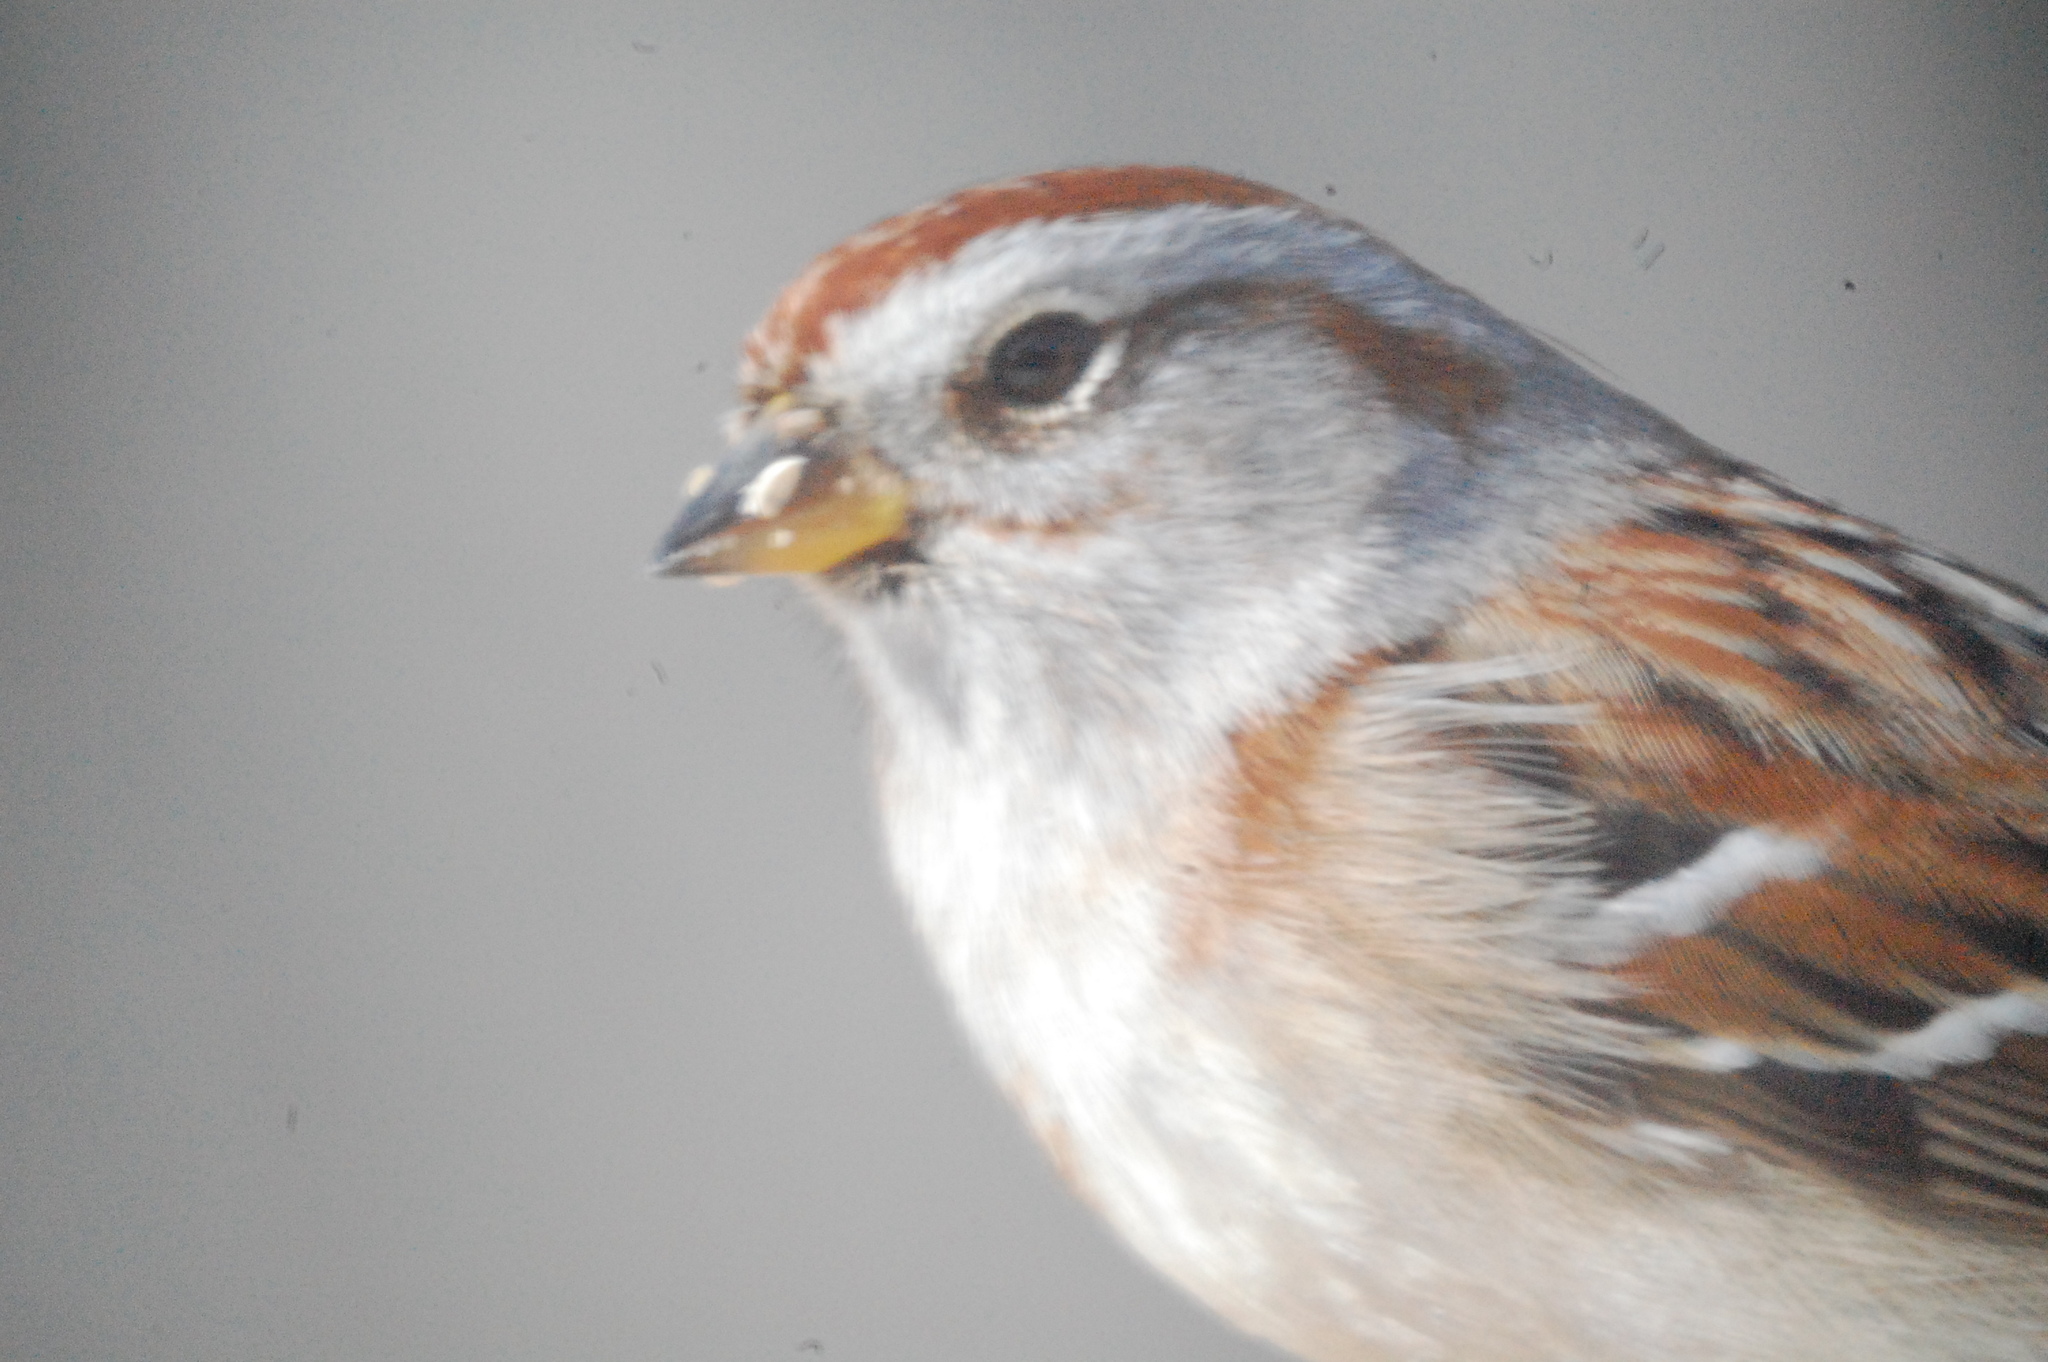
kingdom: Animalia
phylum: Chordata
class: Aves
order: Passeriformes
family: Passerellidae
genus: Spizelloides
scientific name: Spizelloides arborea
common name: American tree sparrow
